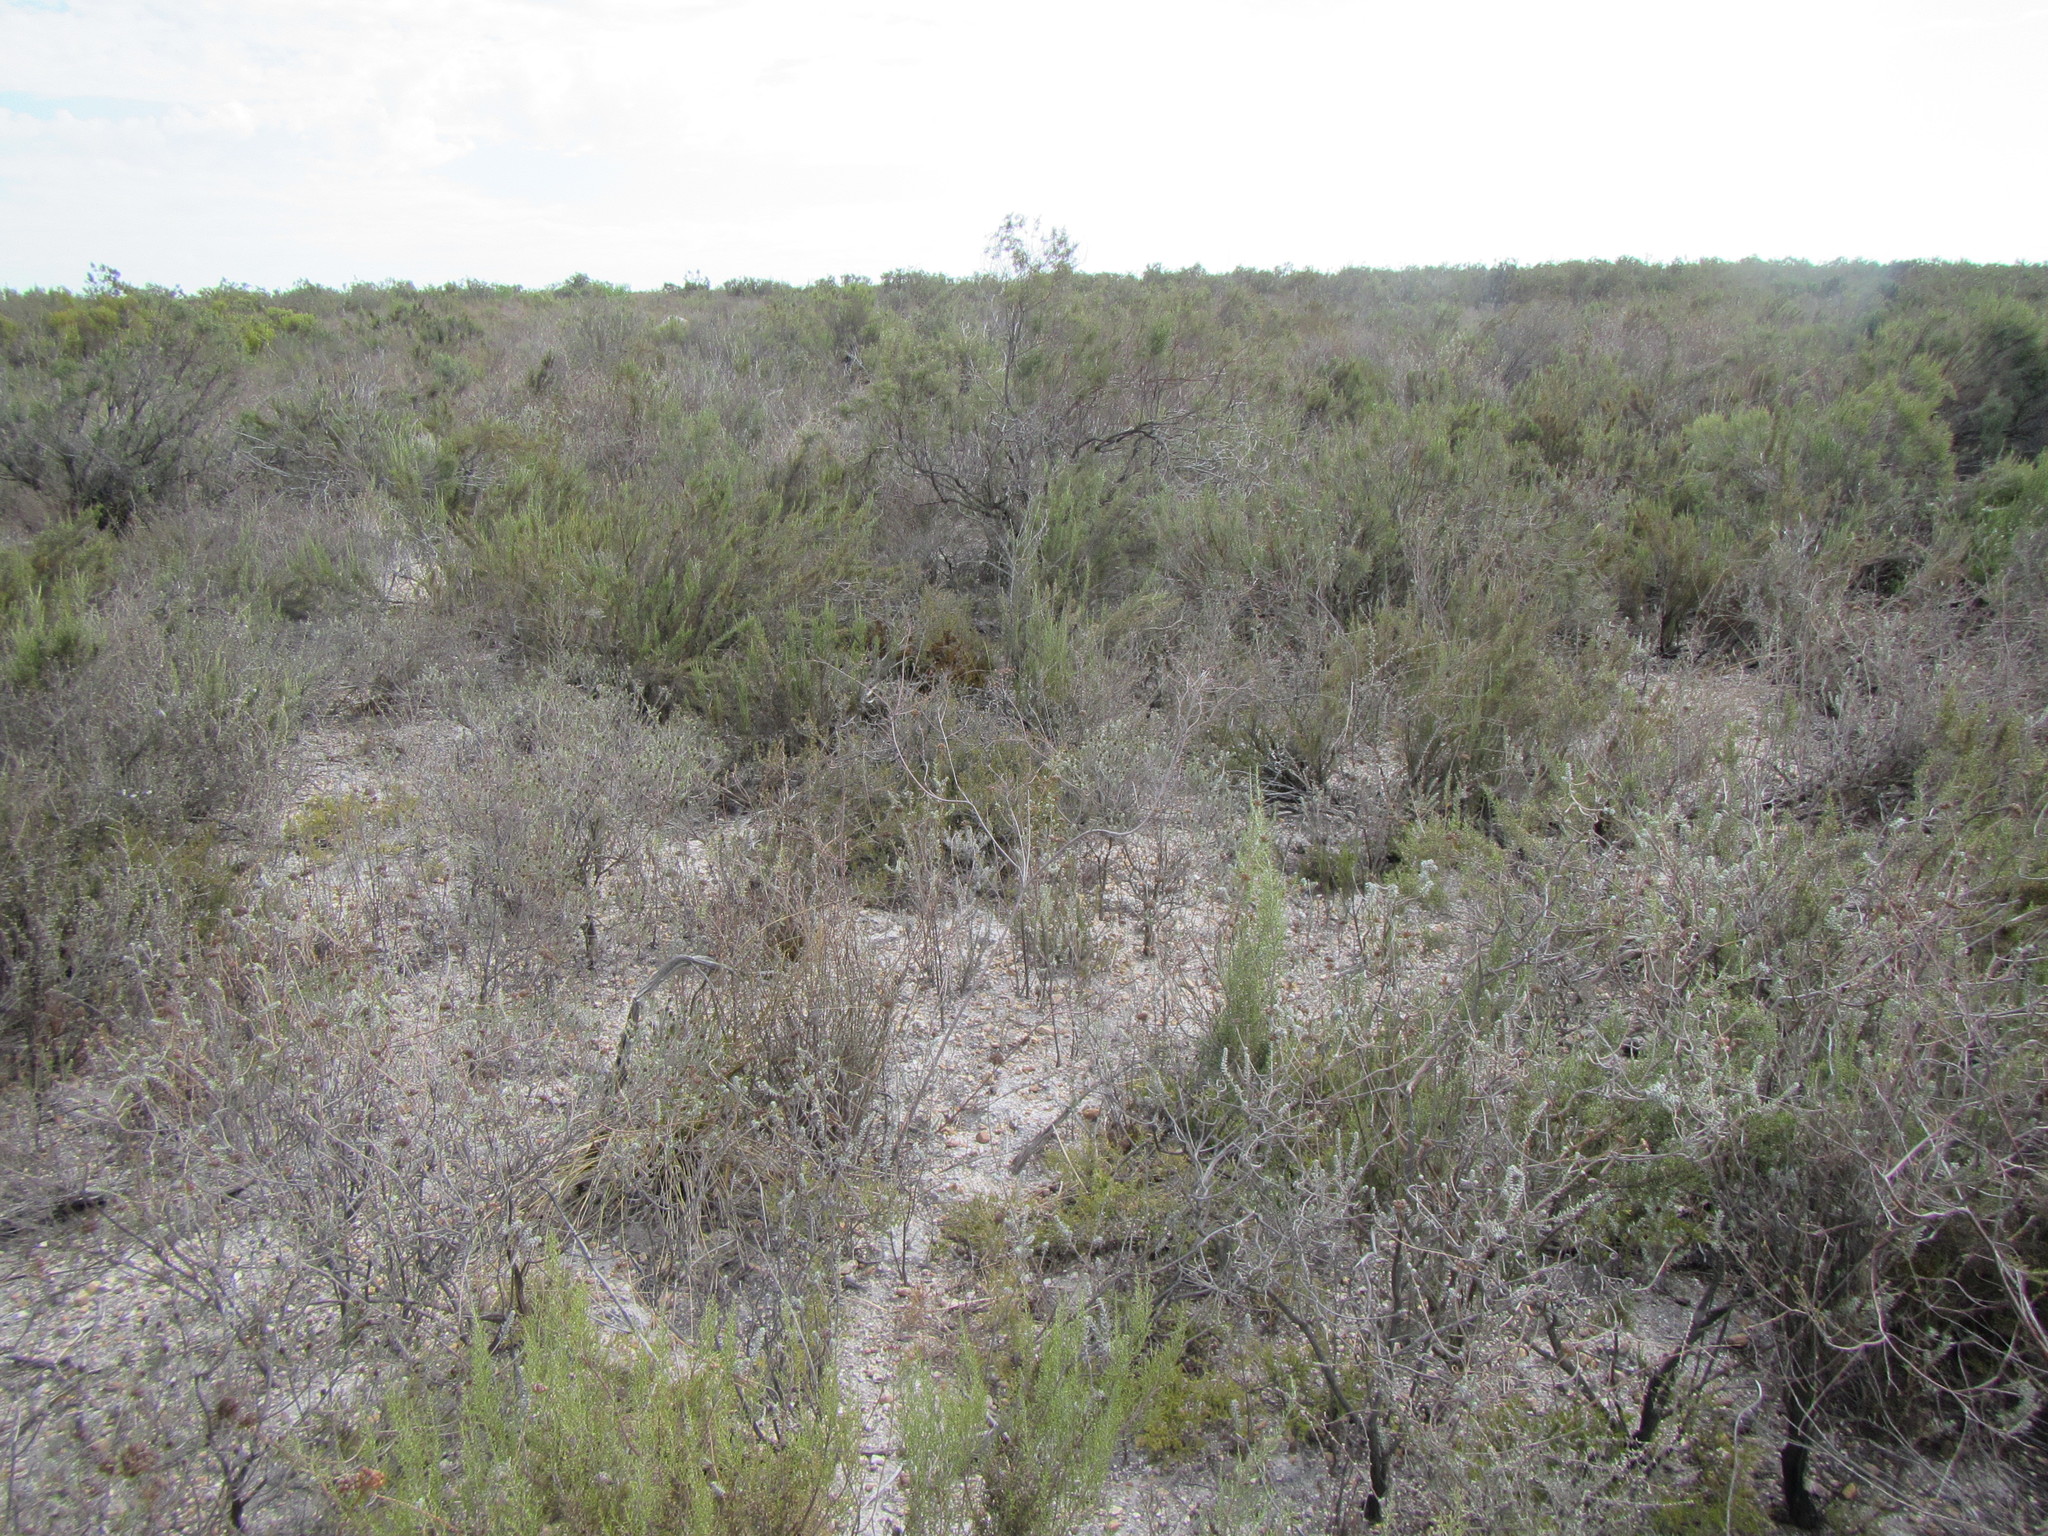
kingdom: Plantae
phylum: Tracheophyta
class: Magnoliopsida
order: Asterales
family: Asteraceae
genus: Dicerothamnus
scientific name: Dicerothamnus rhinocerotis
